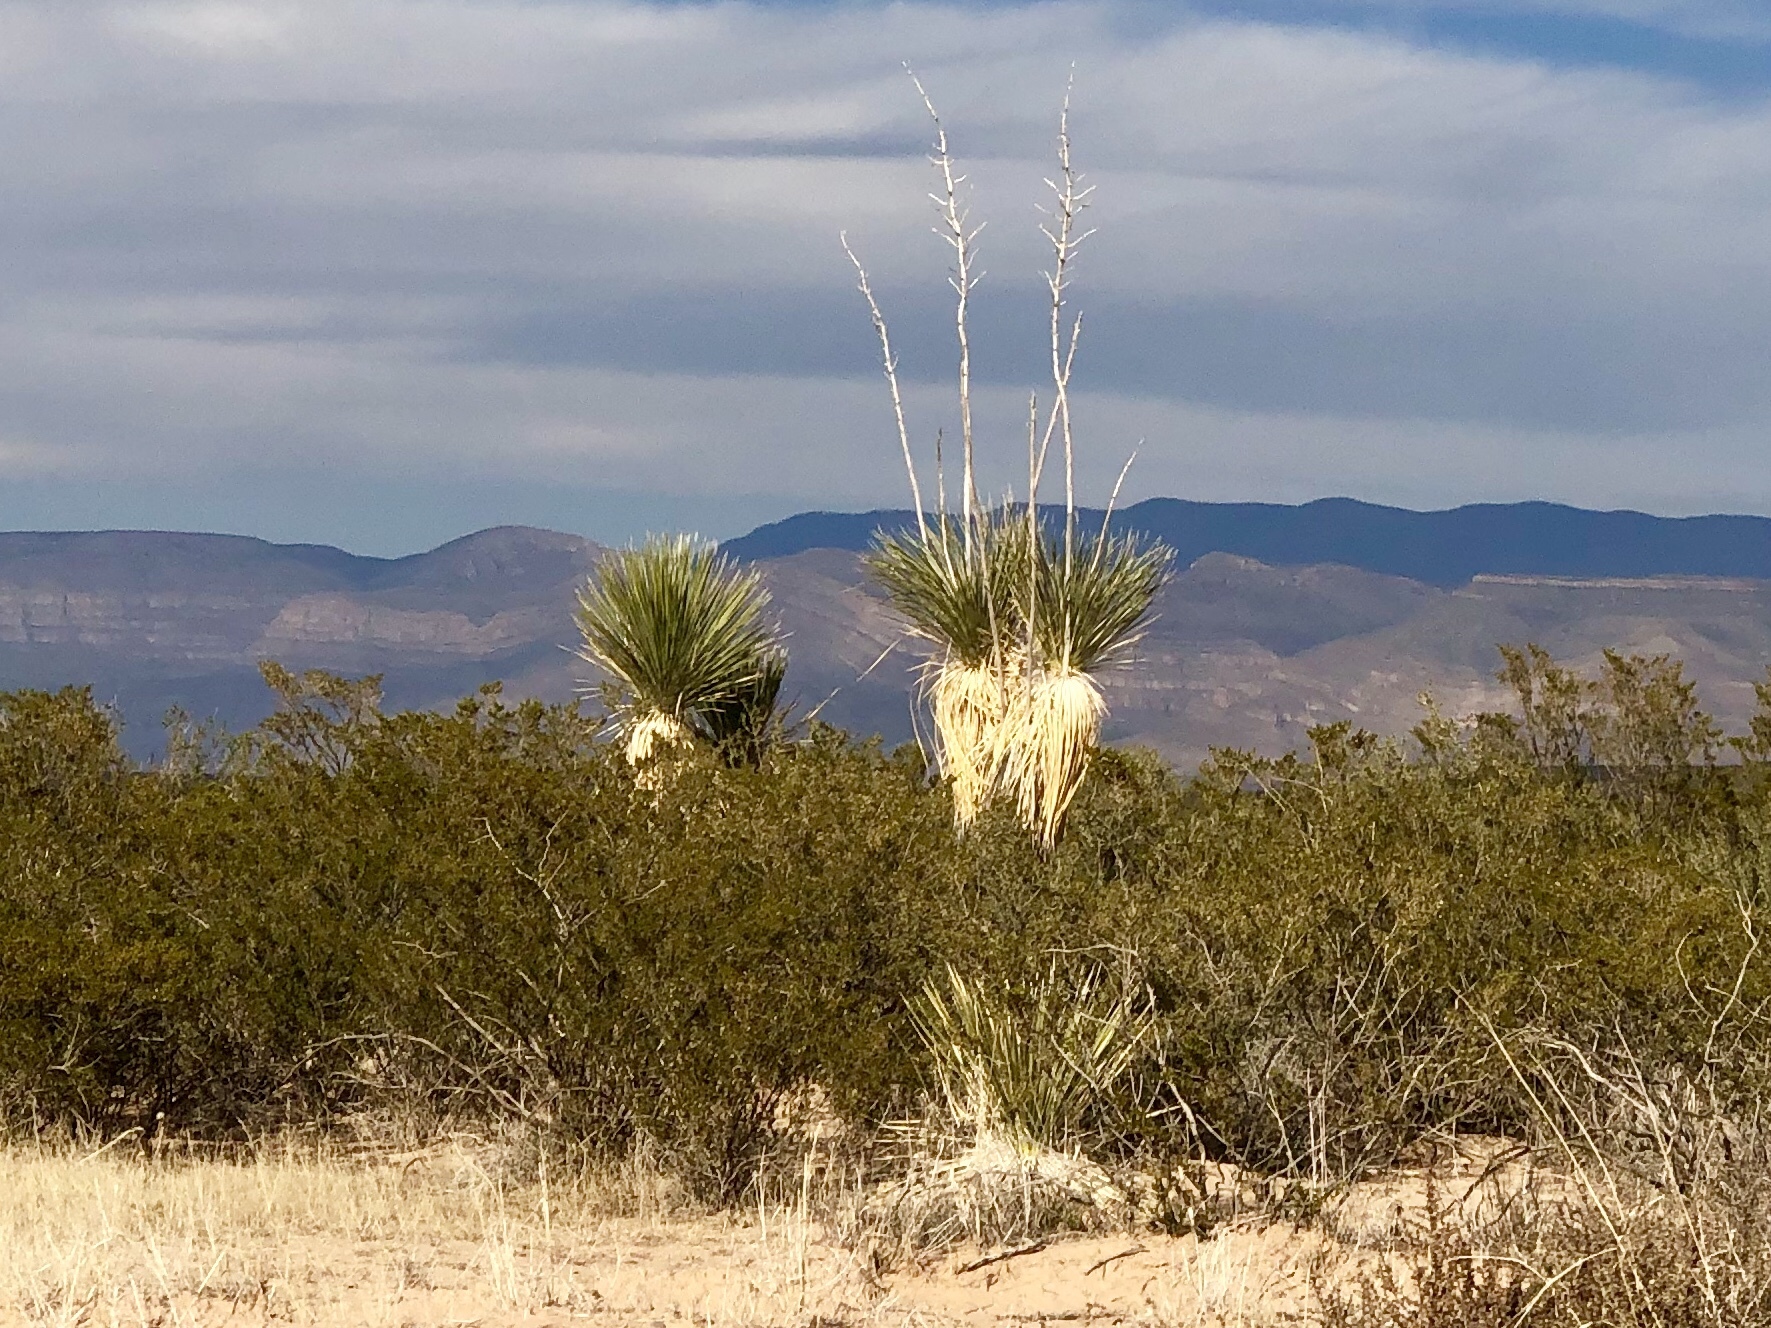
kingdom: Plantae
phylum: Tracheophyta
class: Liliopsida
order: Asparagales
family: Asparagaceae
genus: Yucca
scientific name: Yucca elata
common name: Palmella
